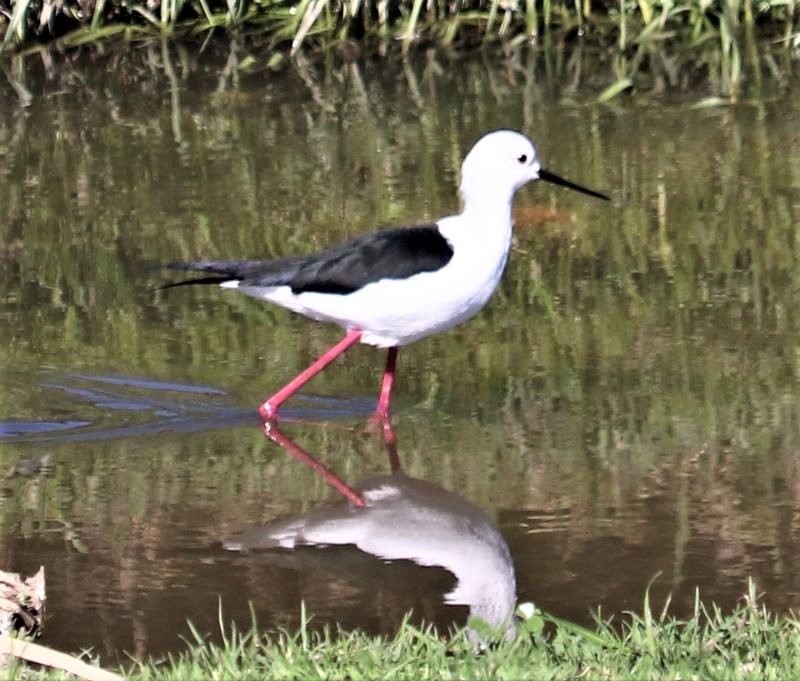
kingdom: Animalia
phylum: Chordata
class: Aves
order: Charadriiformes
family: Recurvirostridae
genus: Himantopus
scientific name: Himantopus himantopus
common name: Black-winged stilt
